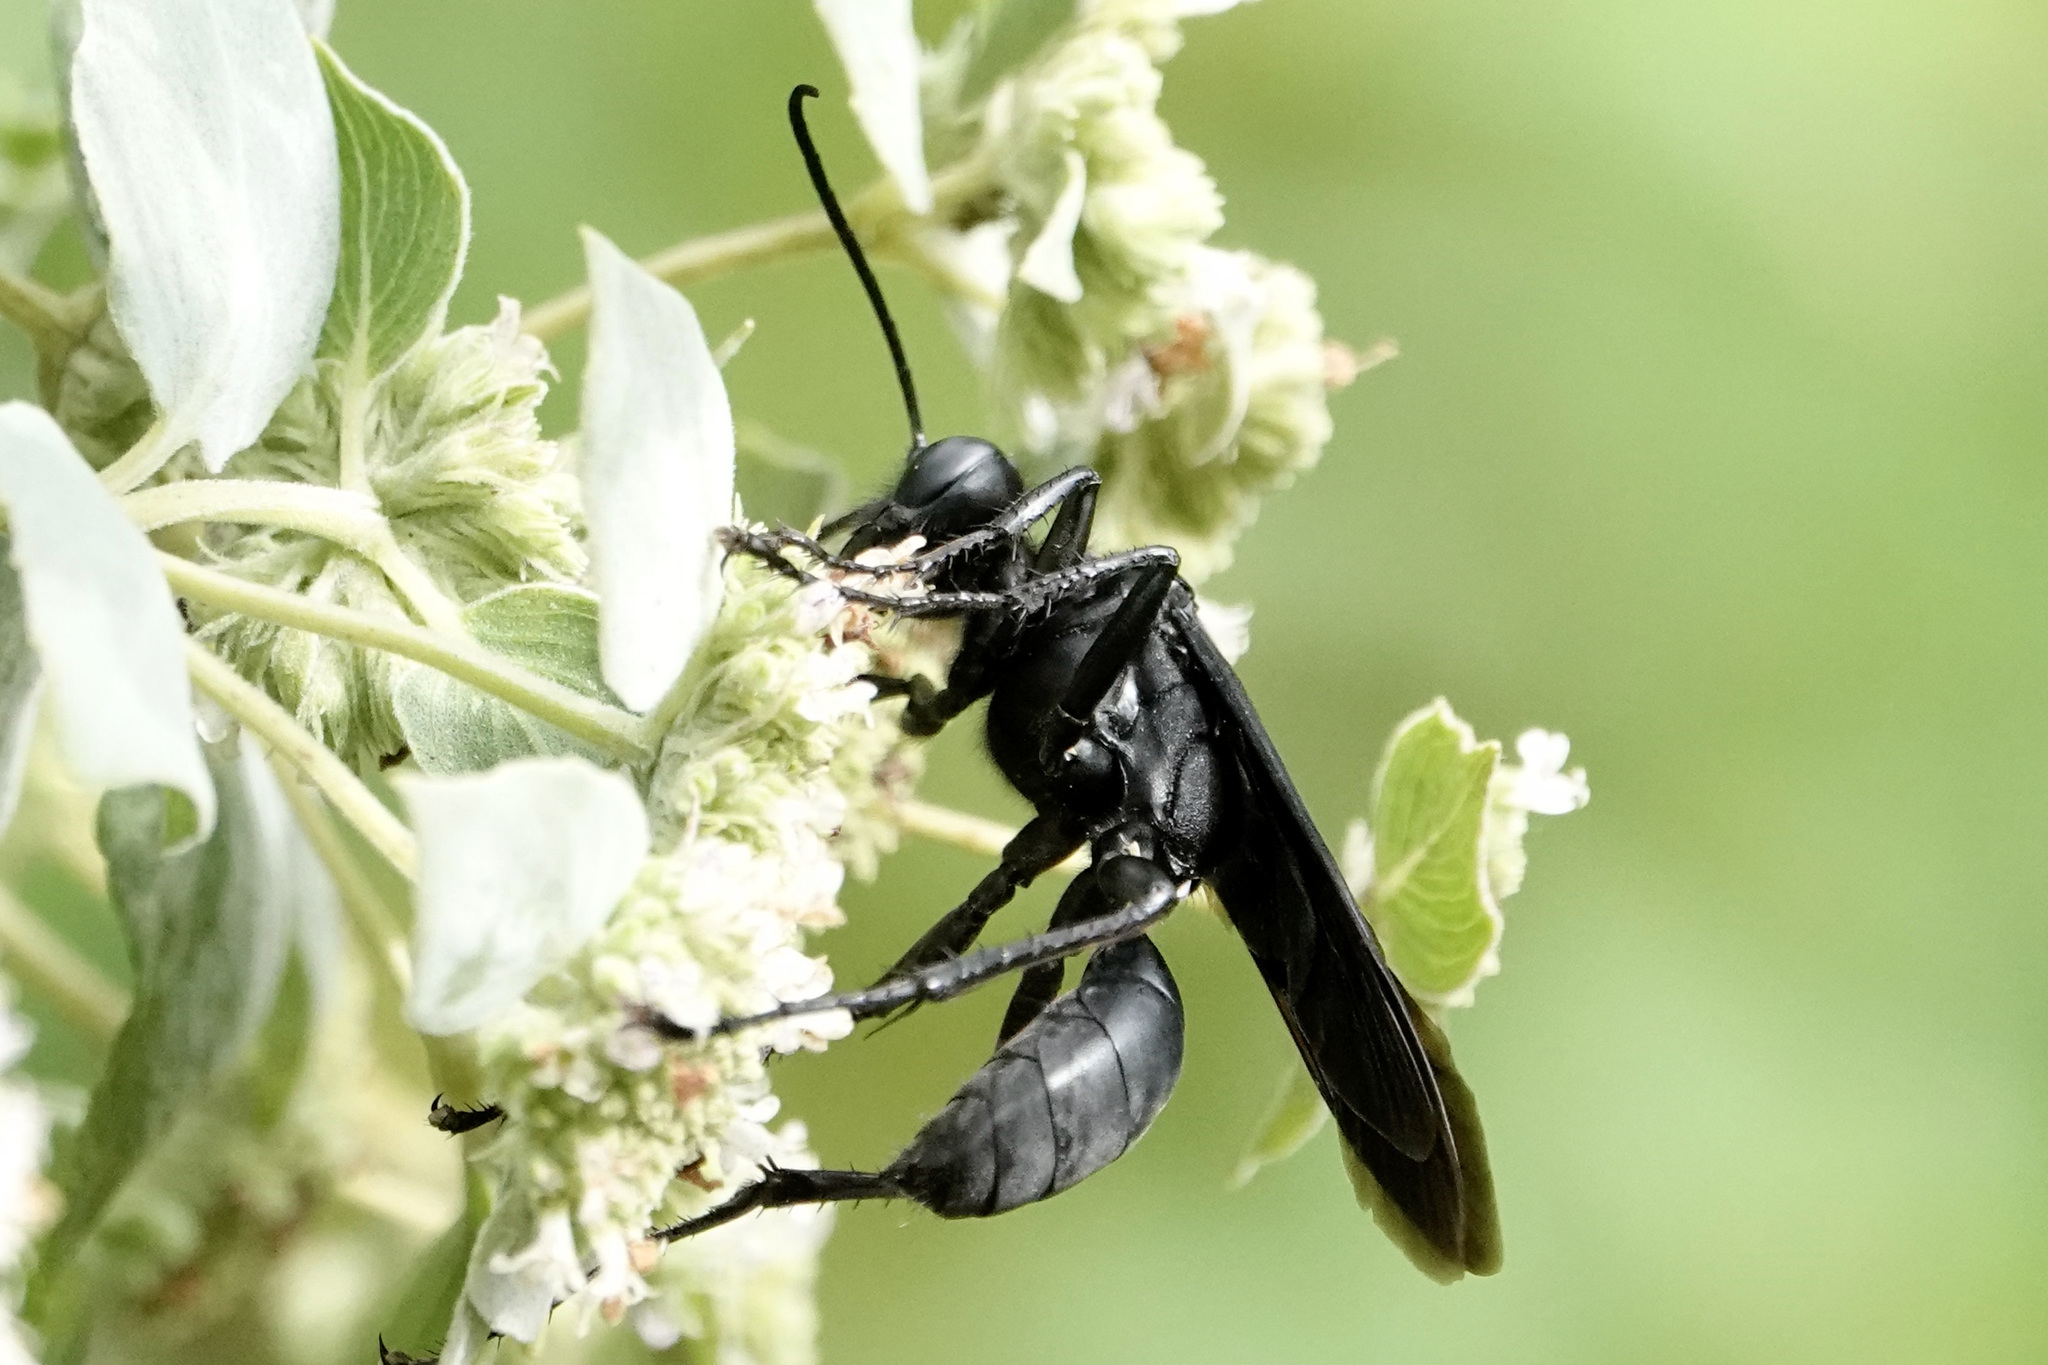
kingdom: Animalia
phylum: Arthropoda
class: Insecta
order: Hymenoptera
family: Sphecidae
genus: Sphex
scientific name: Sphex pensylvanicus
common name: Great black digger wasp
